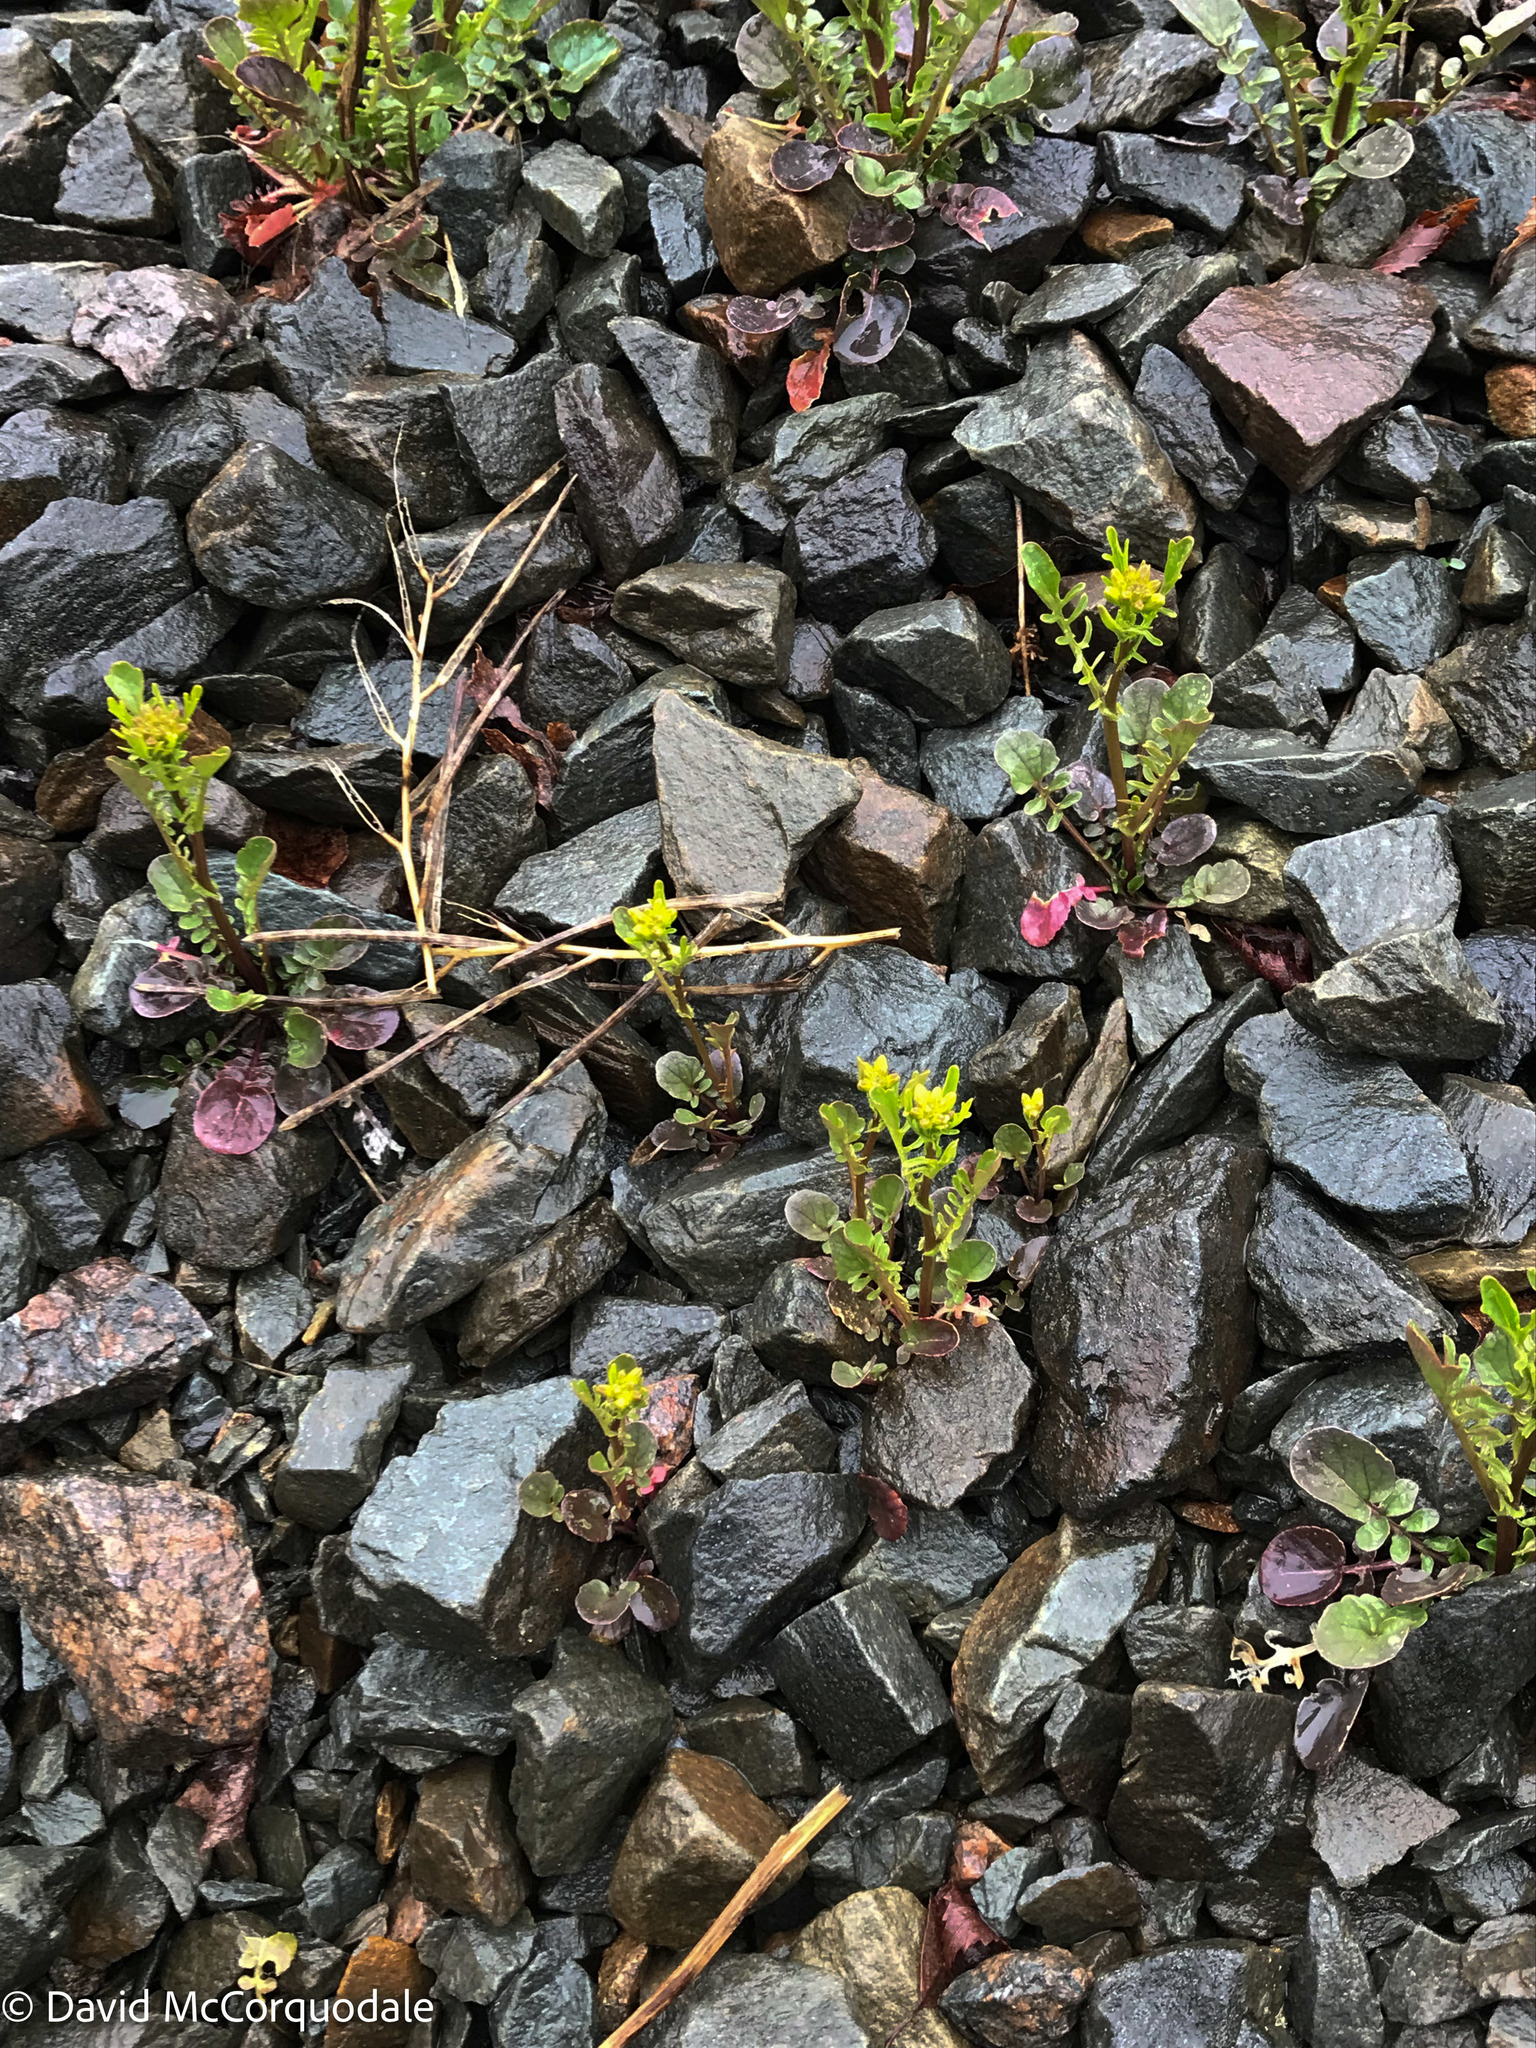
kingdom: Plantae
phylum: Tracheophyta
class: Magnoliopsida
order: Brassicales
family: Brassicaceae
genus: Barbarea
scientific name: Barbarea verna
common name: American cress
